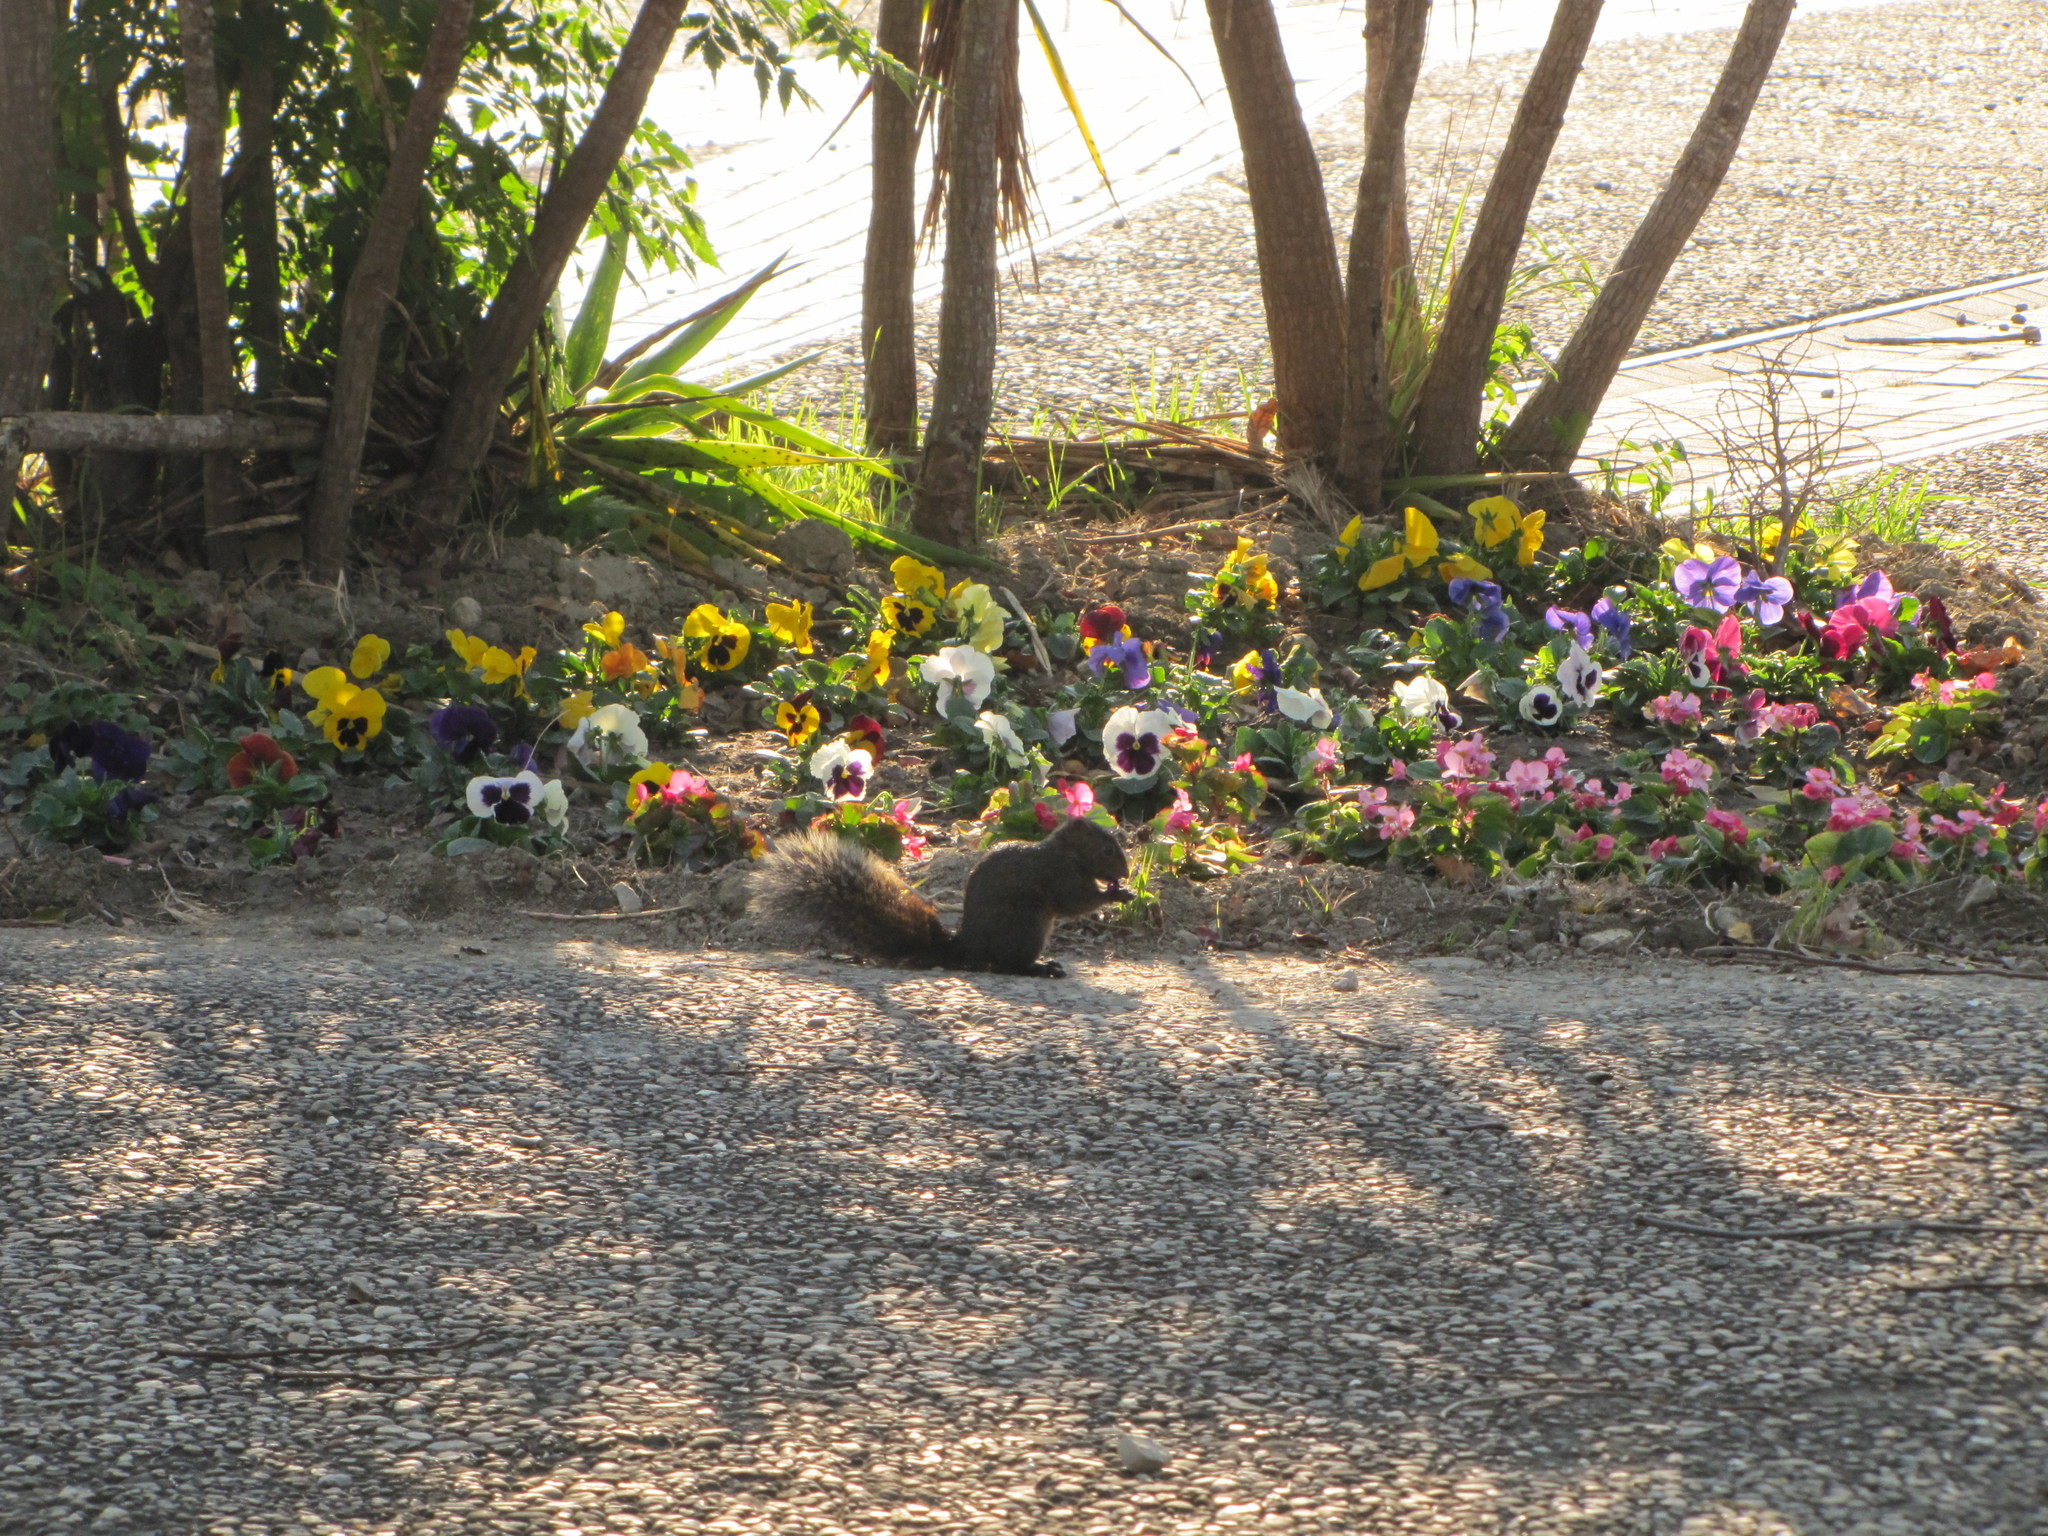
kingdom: Animalia
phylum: Chordata
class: Mammalia
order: Rodentia
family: Sciuridae
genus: Callosciurus
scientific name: Callosciurus erythraeus
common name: Pallas's squirrel
